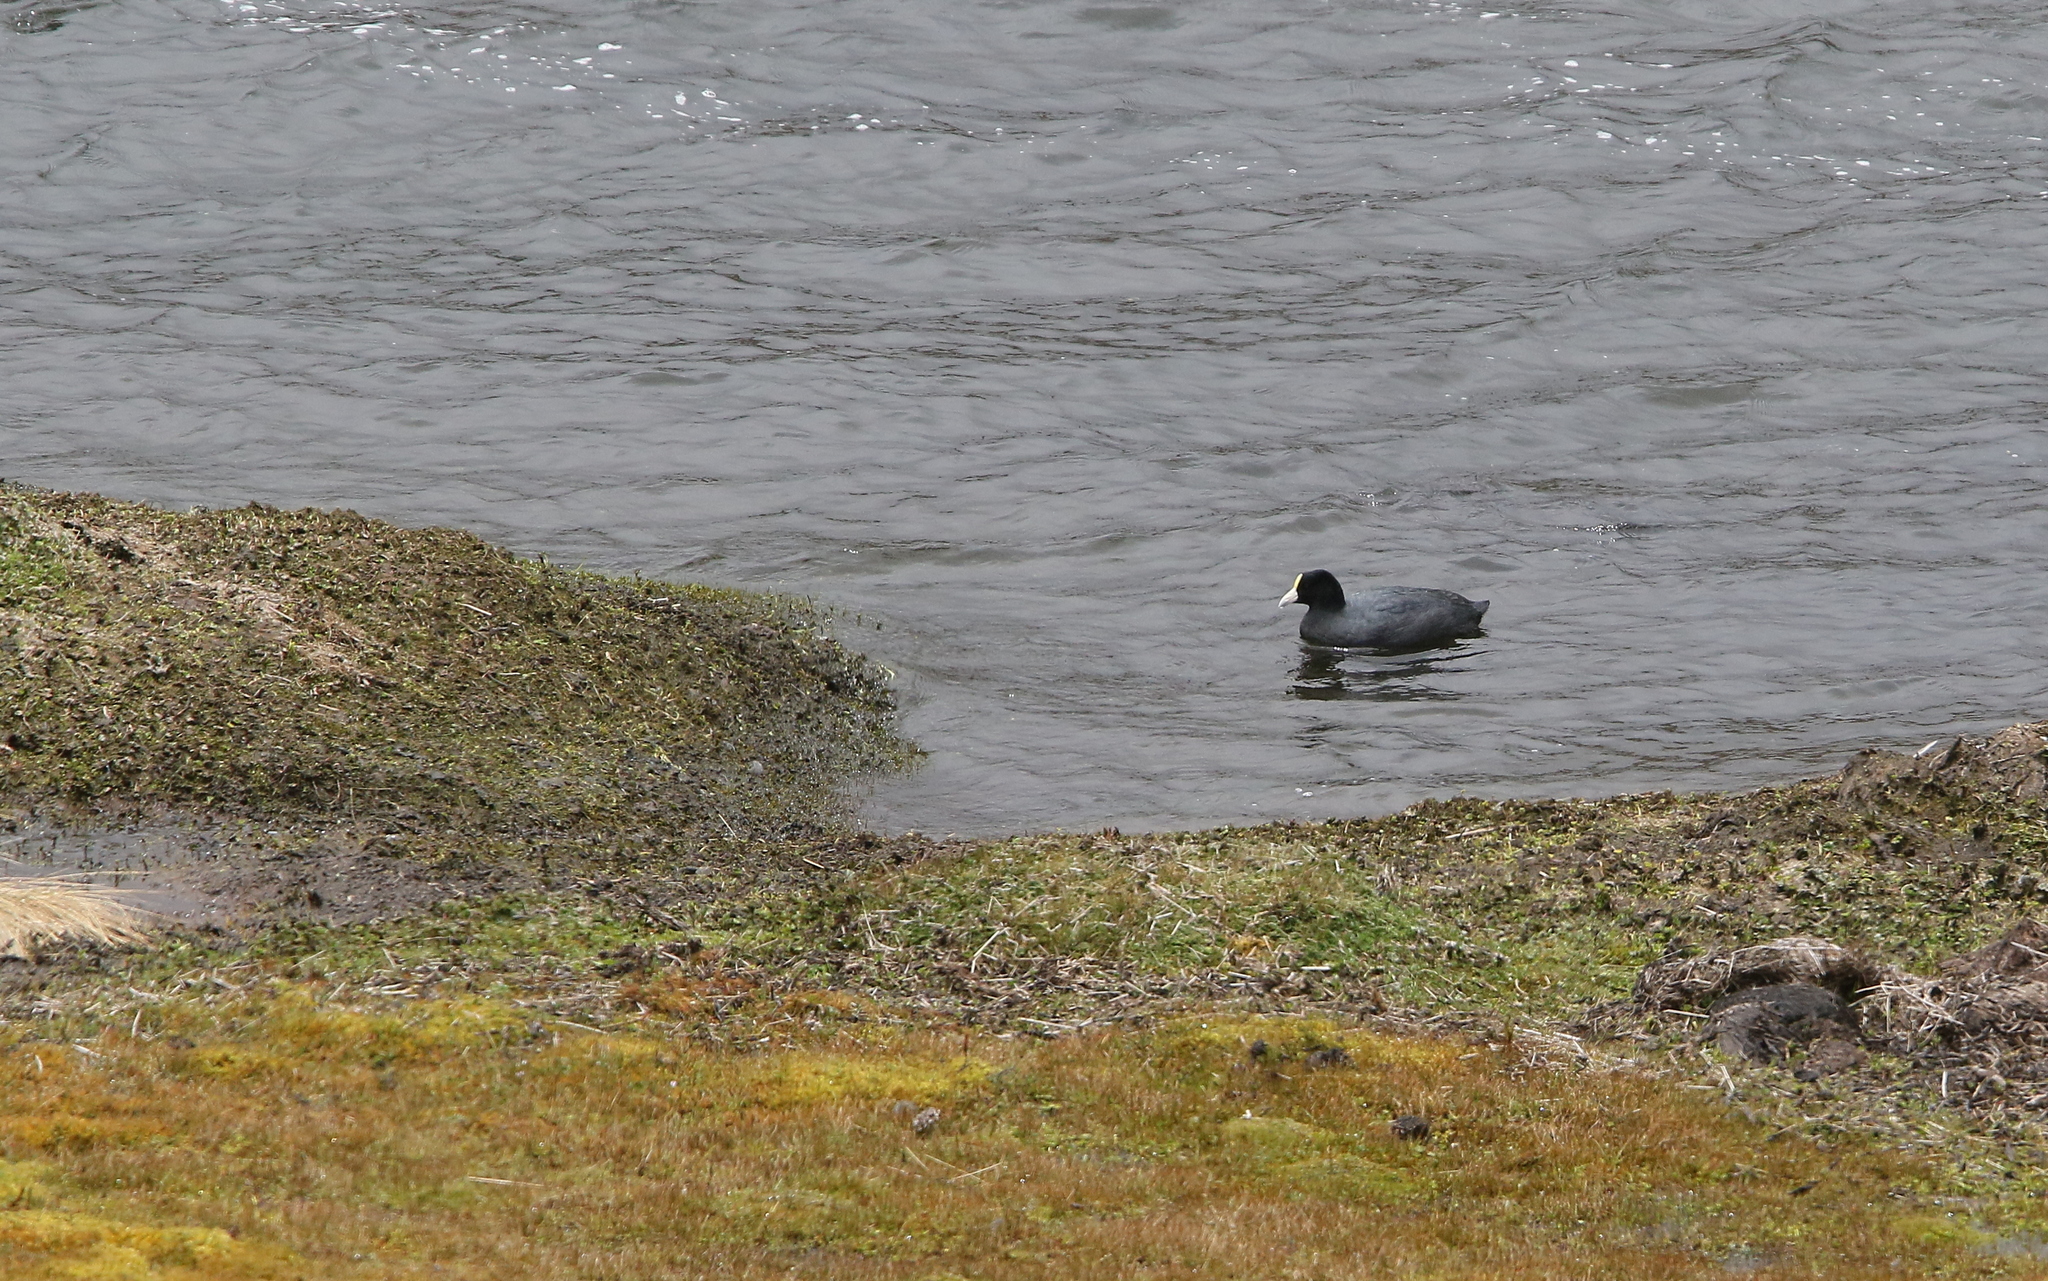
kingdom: Animalia
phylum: Chordata
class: Aves
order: Gruiformes
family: Rallidae
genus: Fulica
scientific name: Fulica ardesiaca
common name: Andean coot
